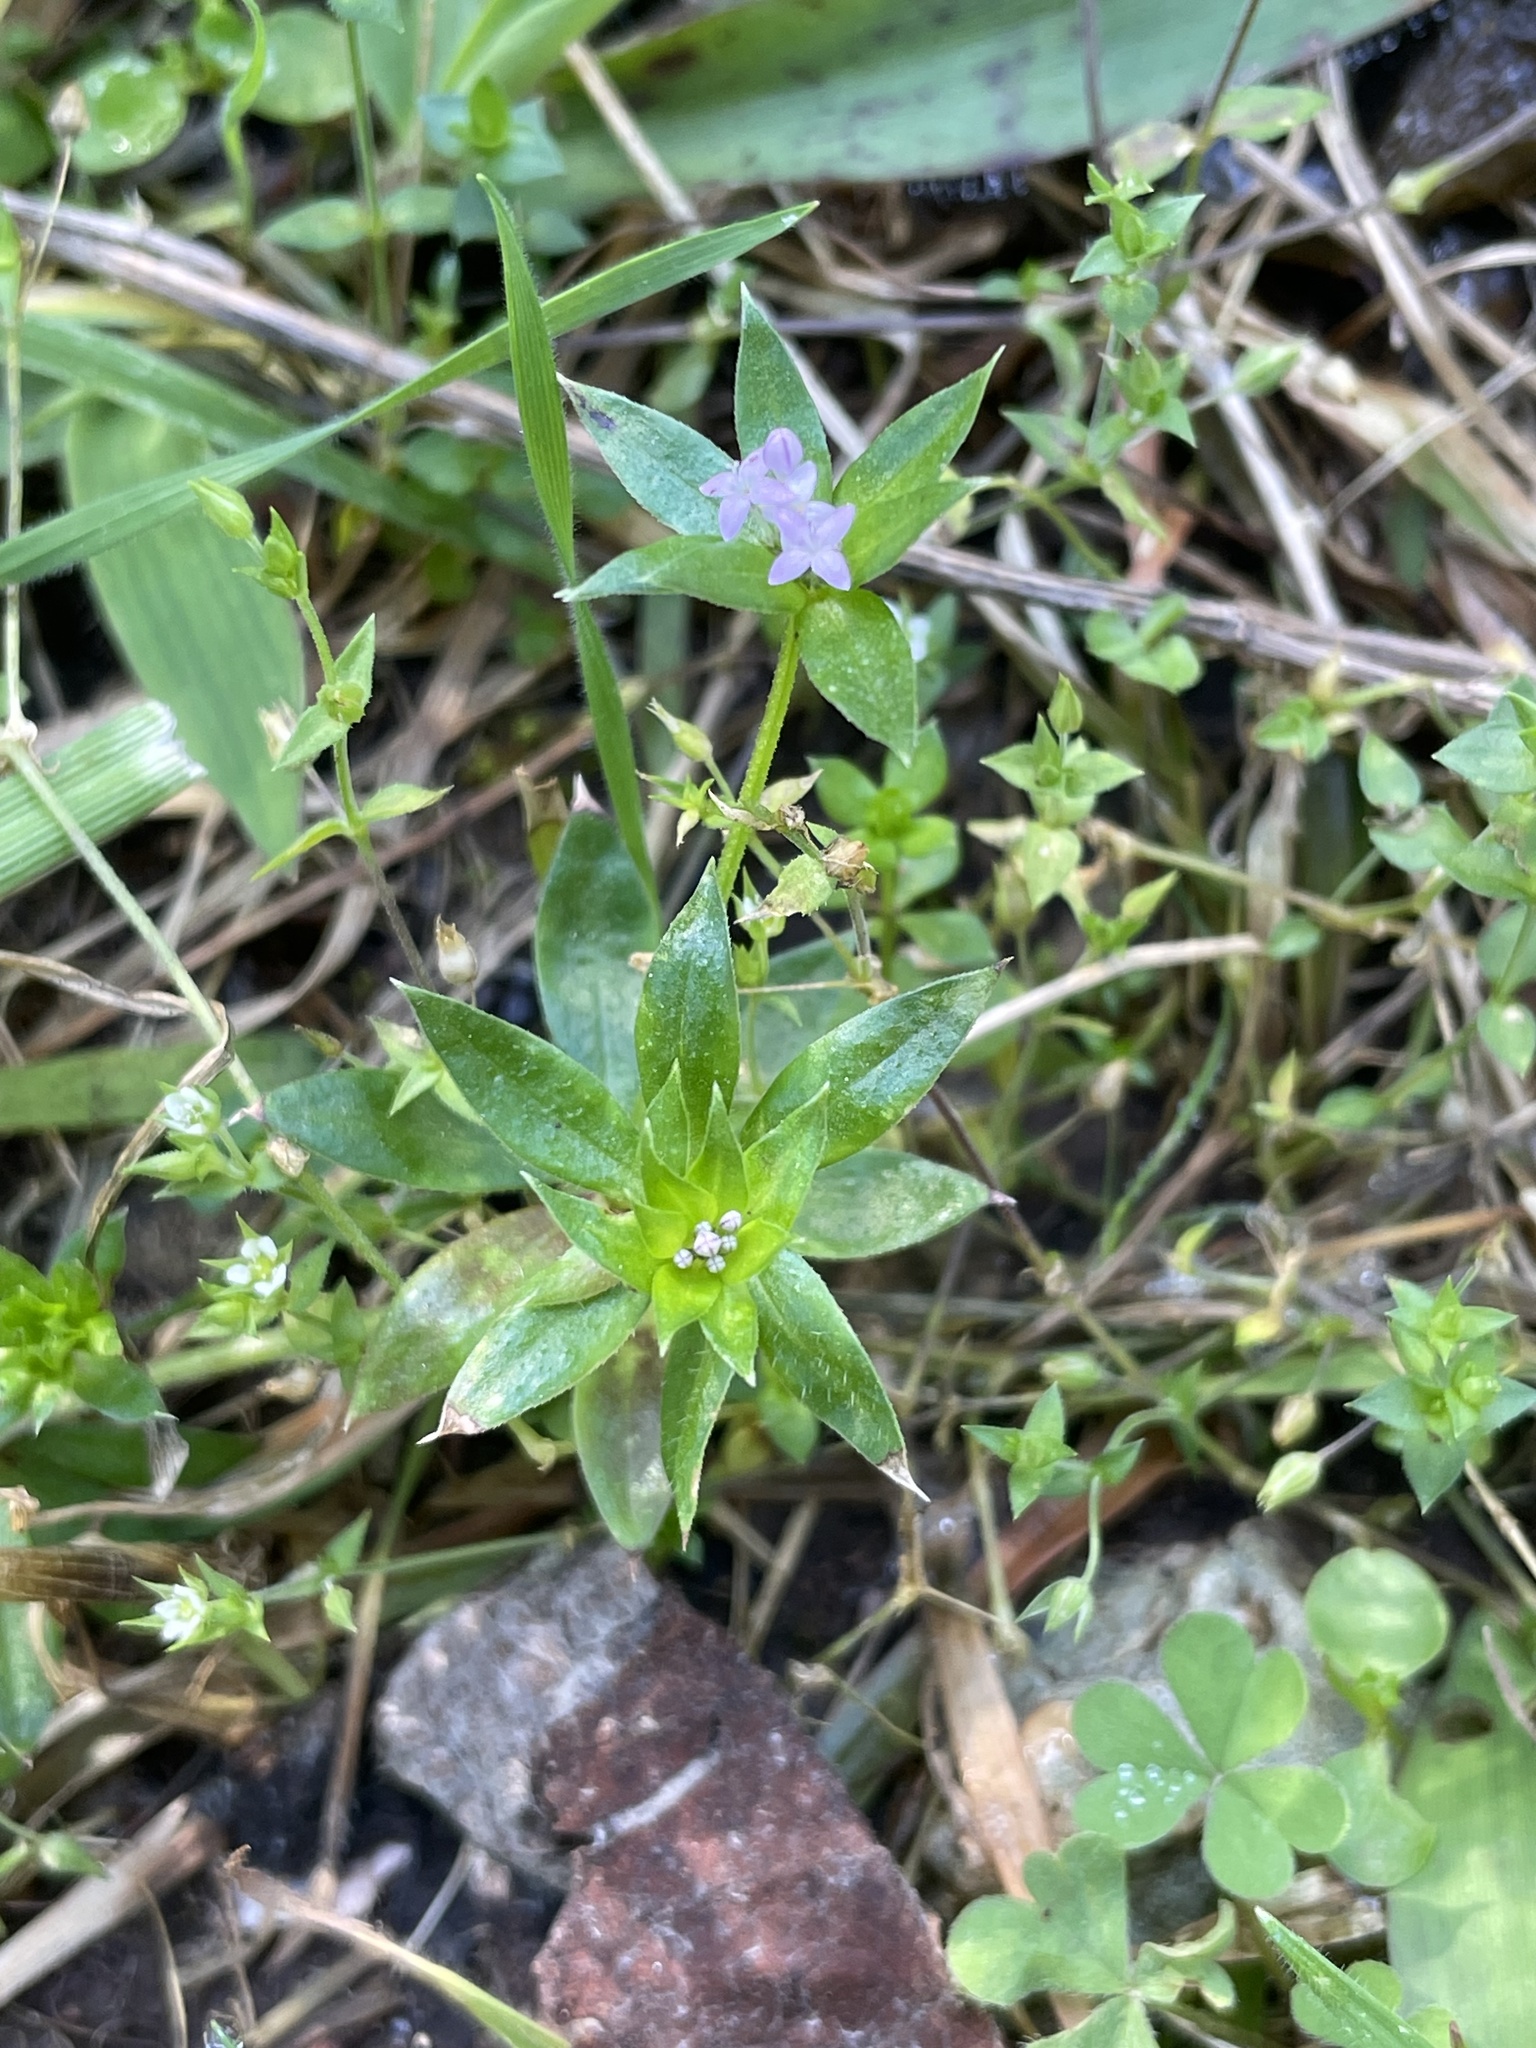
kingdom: Plantae
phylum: Tracheophyta
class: Magnoliopsida
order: Gentianales
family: Rubiaceae
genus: Sherardia
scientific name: Sherardia arvensis
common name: Field madder
